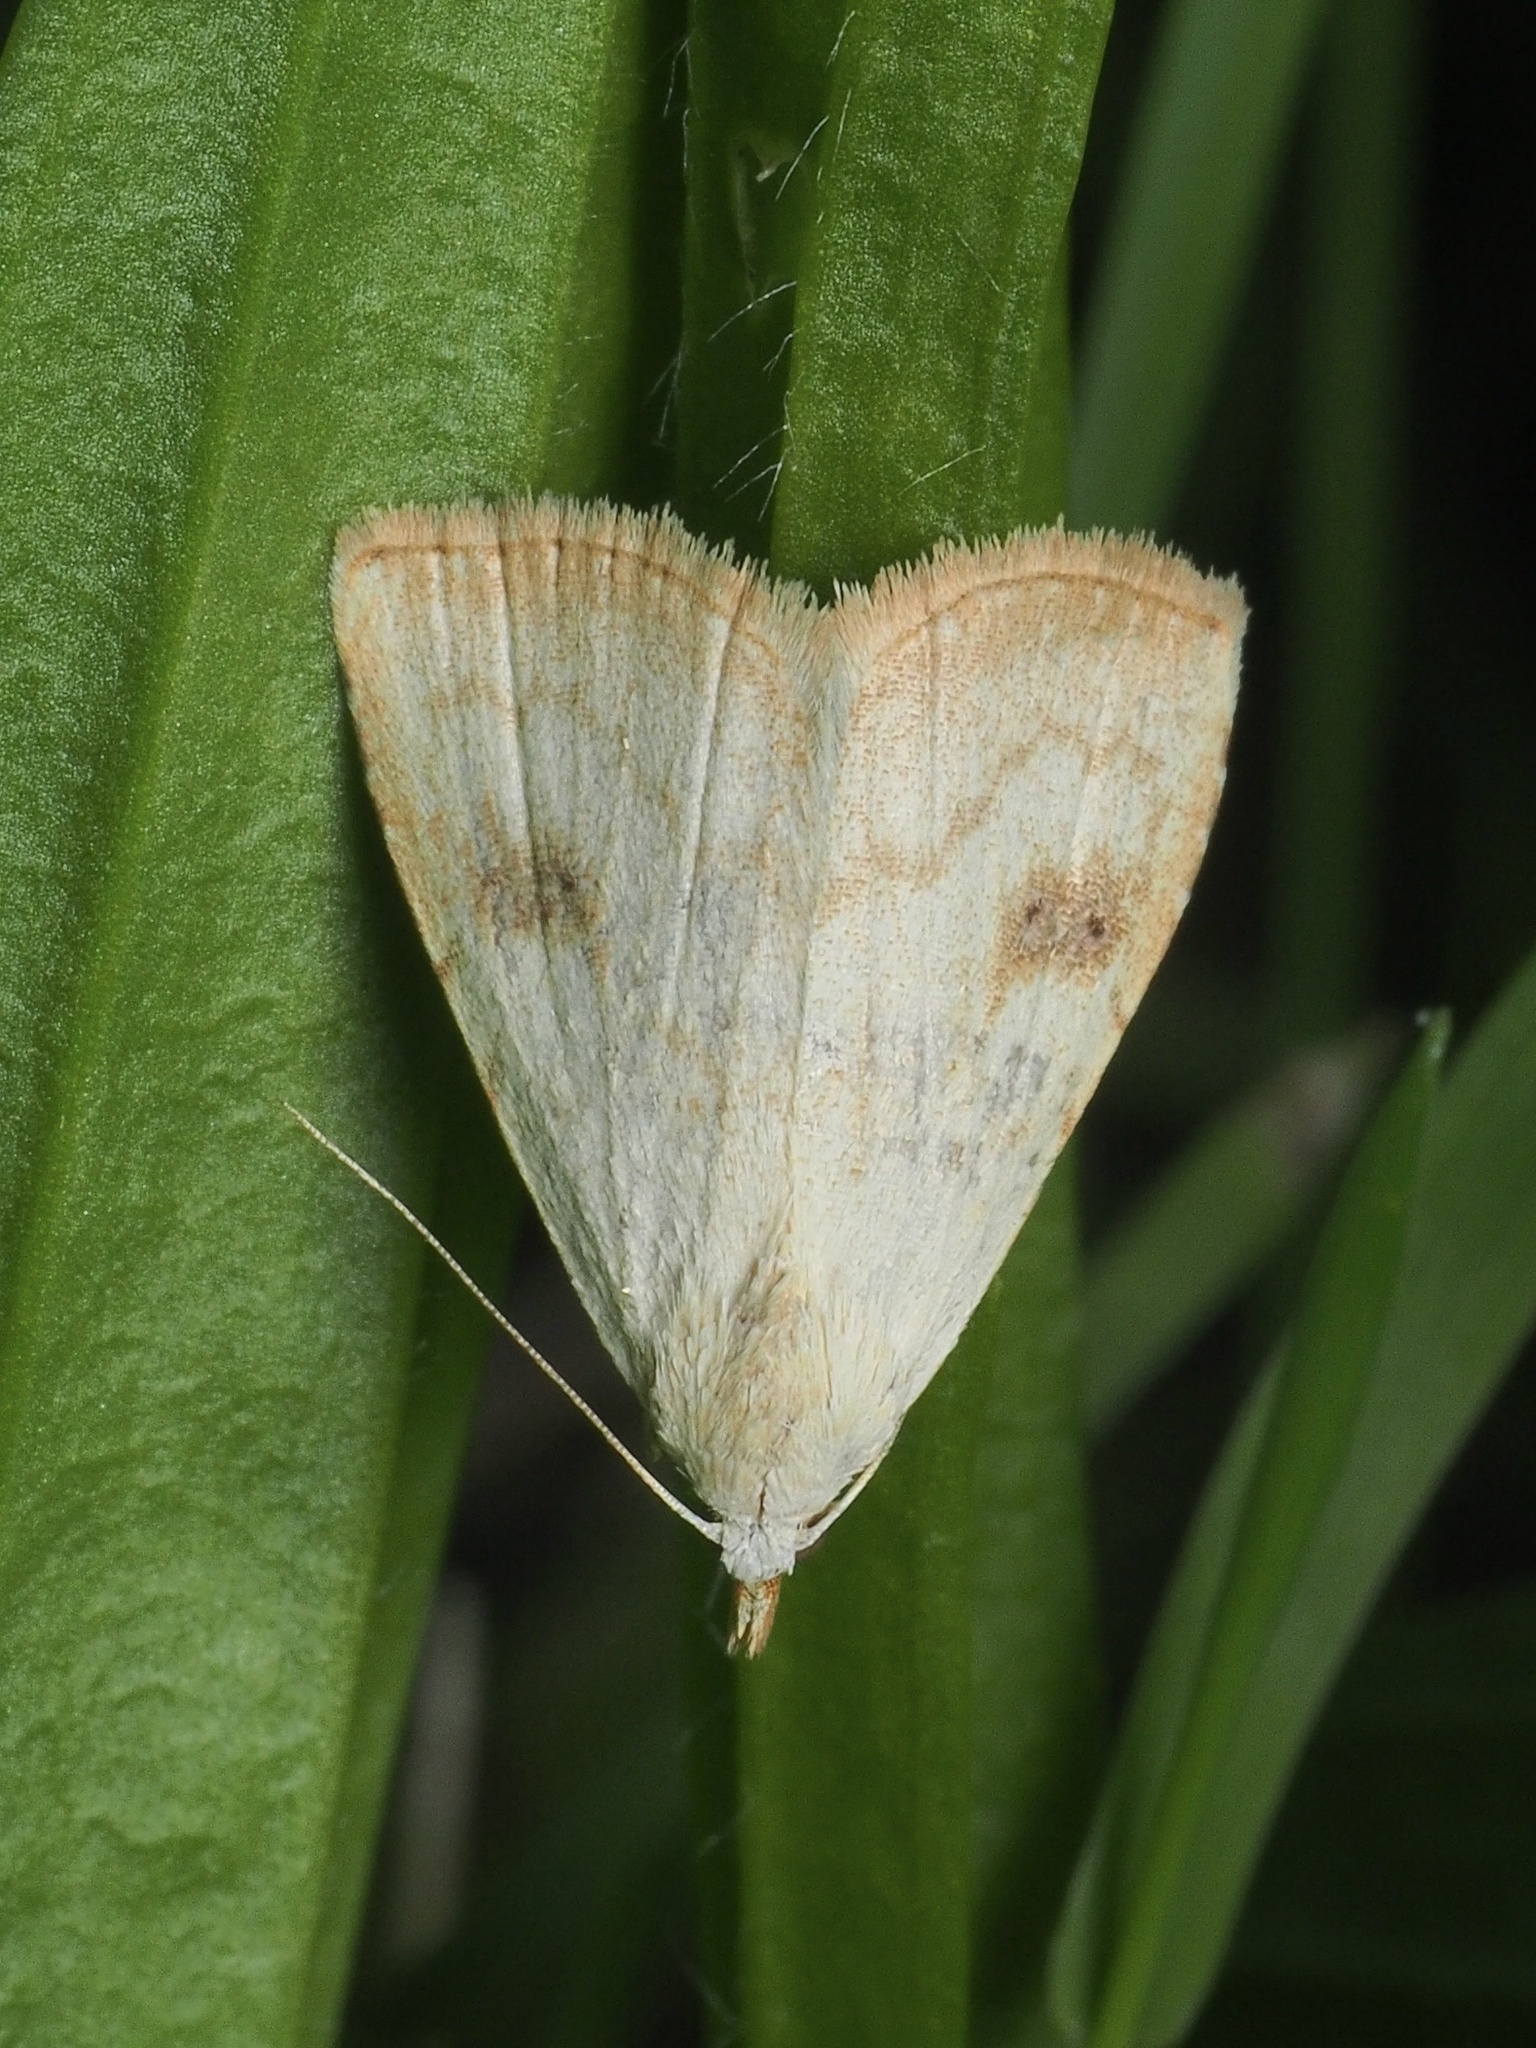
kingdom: Animalia
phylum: Arthropoda
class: Insecta
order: Lepidoptera
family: Erebidae
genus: Rivula
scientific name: Rivula sericealis
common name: Straw dot
